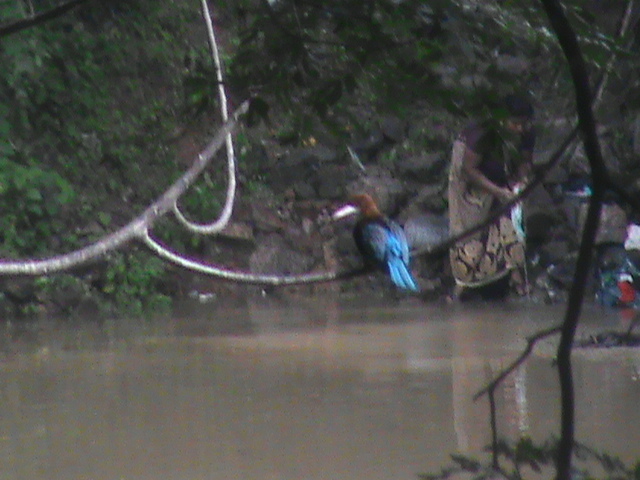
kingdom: Animalia
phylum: Chordata
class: Aves
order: Coraciiformes
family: Alcedinidae
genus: Halcyon
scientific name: Halcyon smyrnensis
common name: White-throated kingfisher
